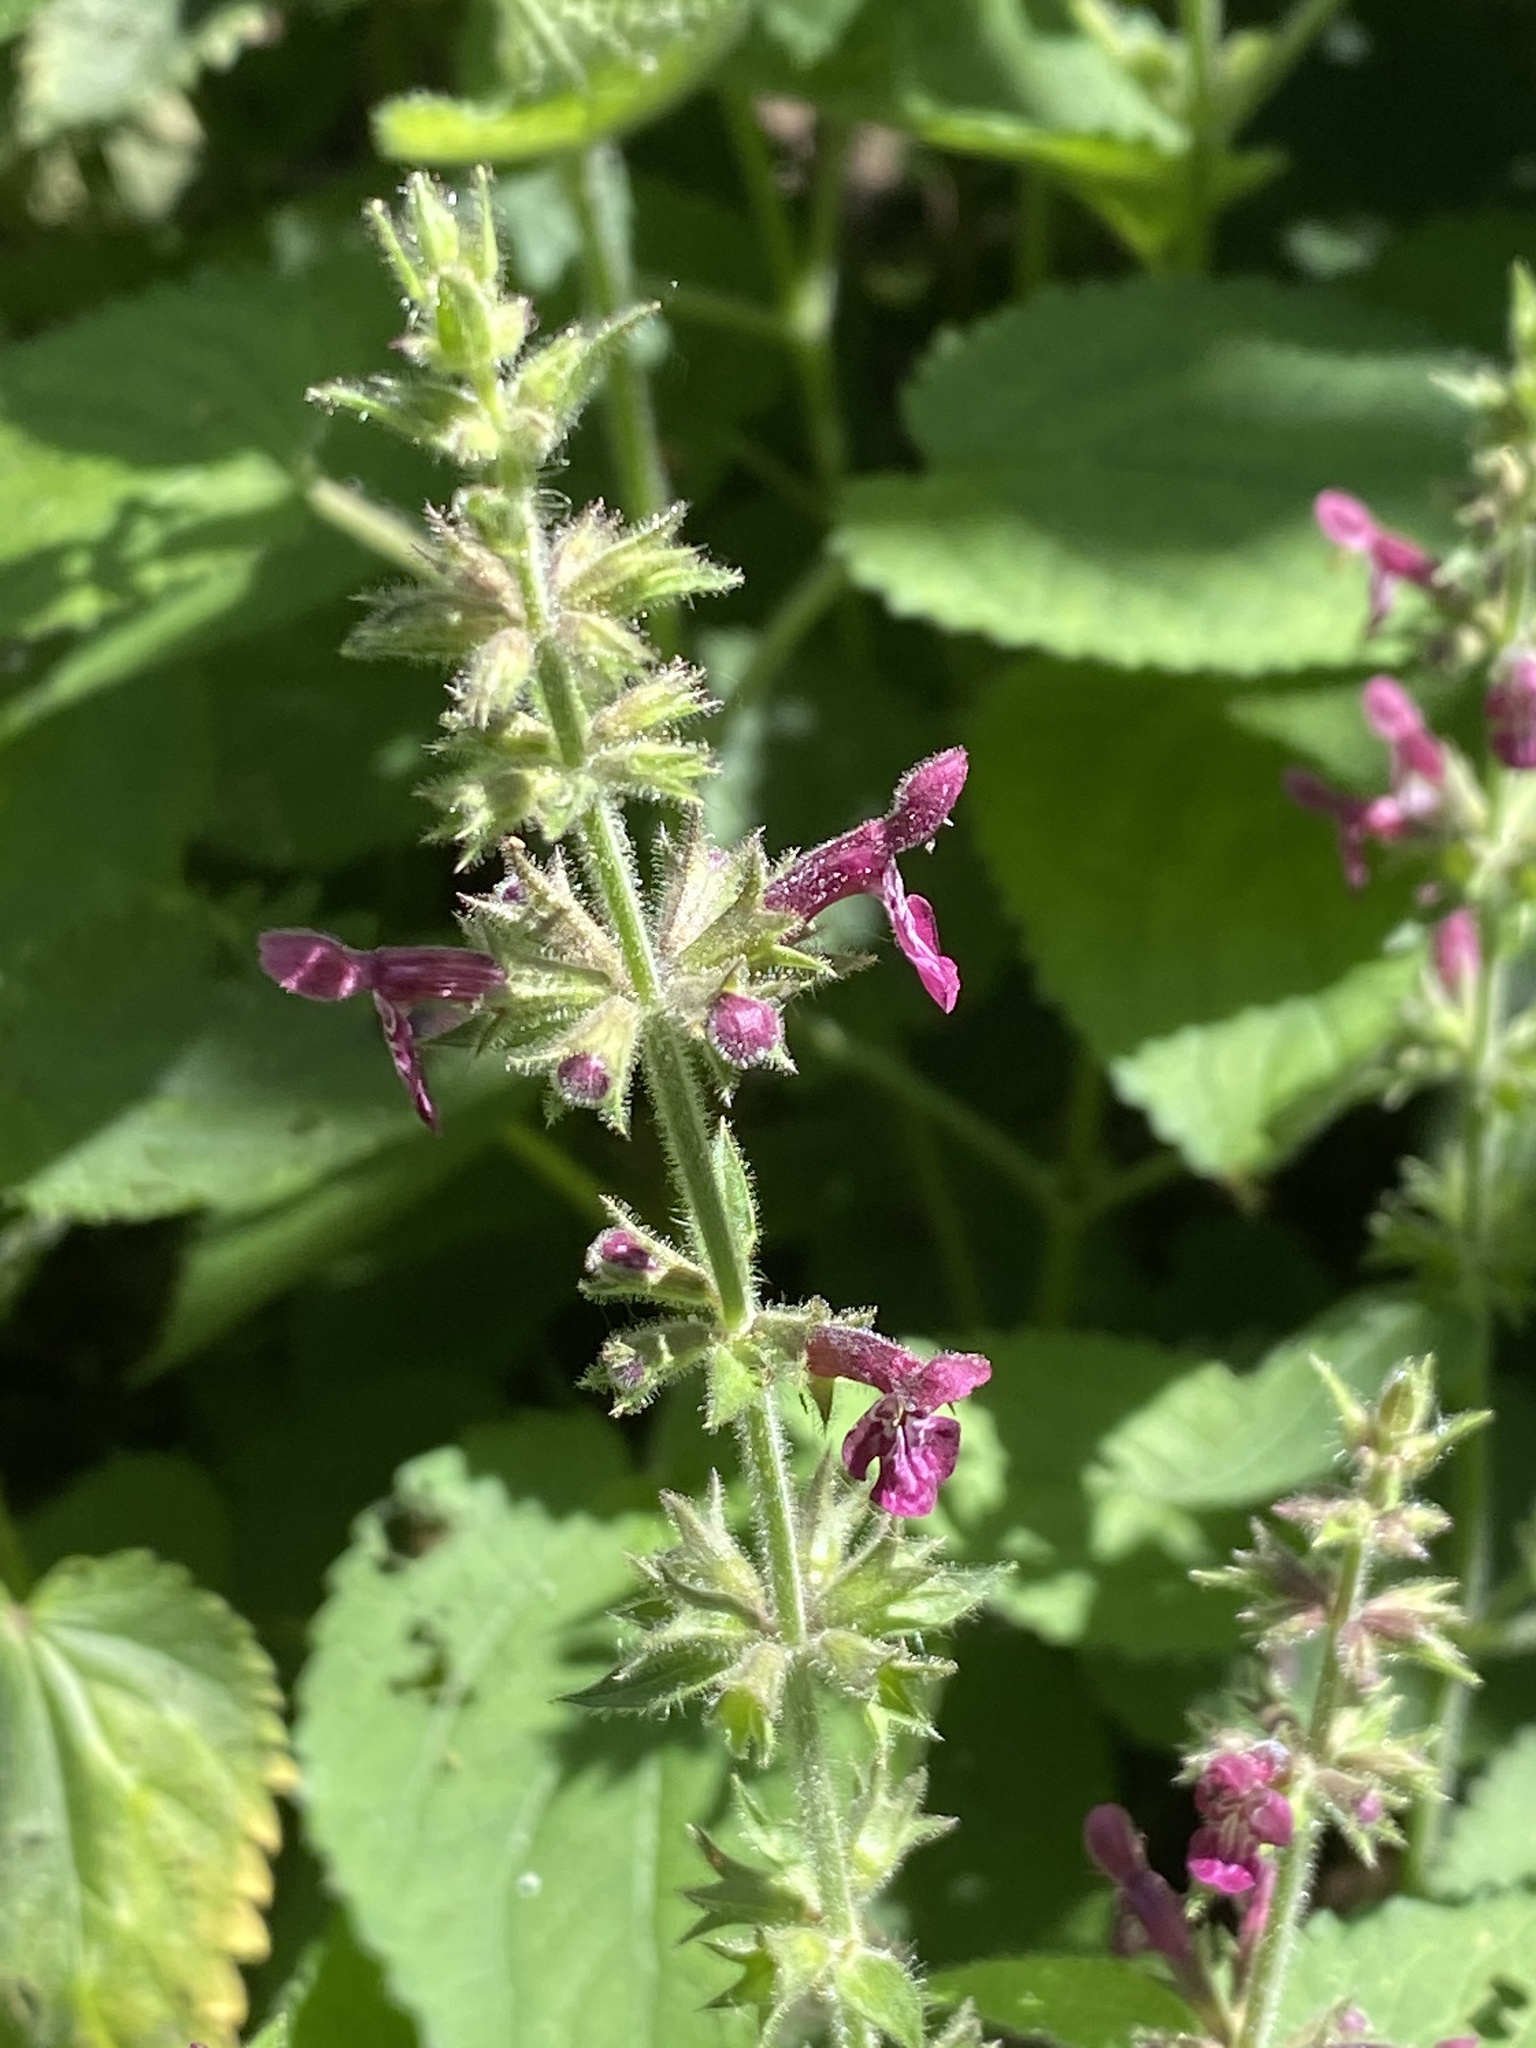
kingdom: Plantae
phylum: Tracheophyta
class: Magnoliopsida
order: Lamiales
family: Lamiaceae
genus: Stachys
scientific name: Stachys sylvatica
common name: Hedge woundwort
